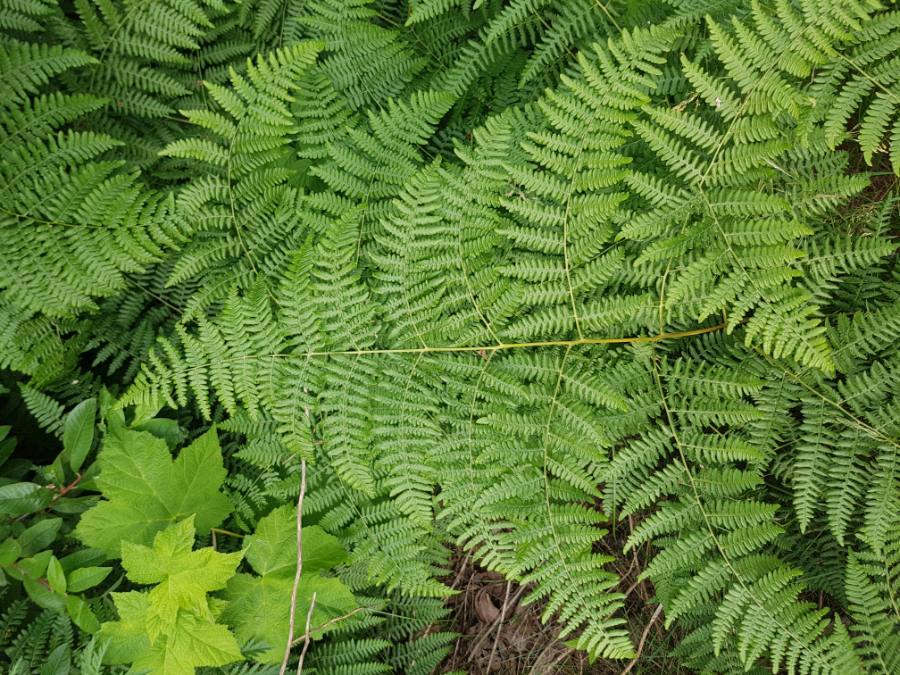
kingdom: Plantae
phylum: Tracheophyta
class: Polypodiopsida
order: Polypodiales
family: Dennstaedtiaceae
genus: Pteridium
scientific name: Pteridium aquilinum
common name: Bracken
